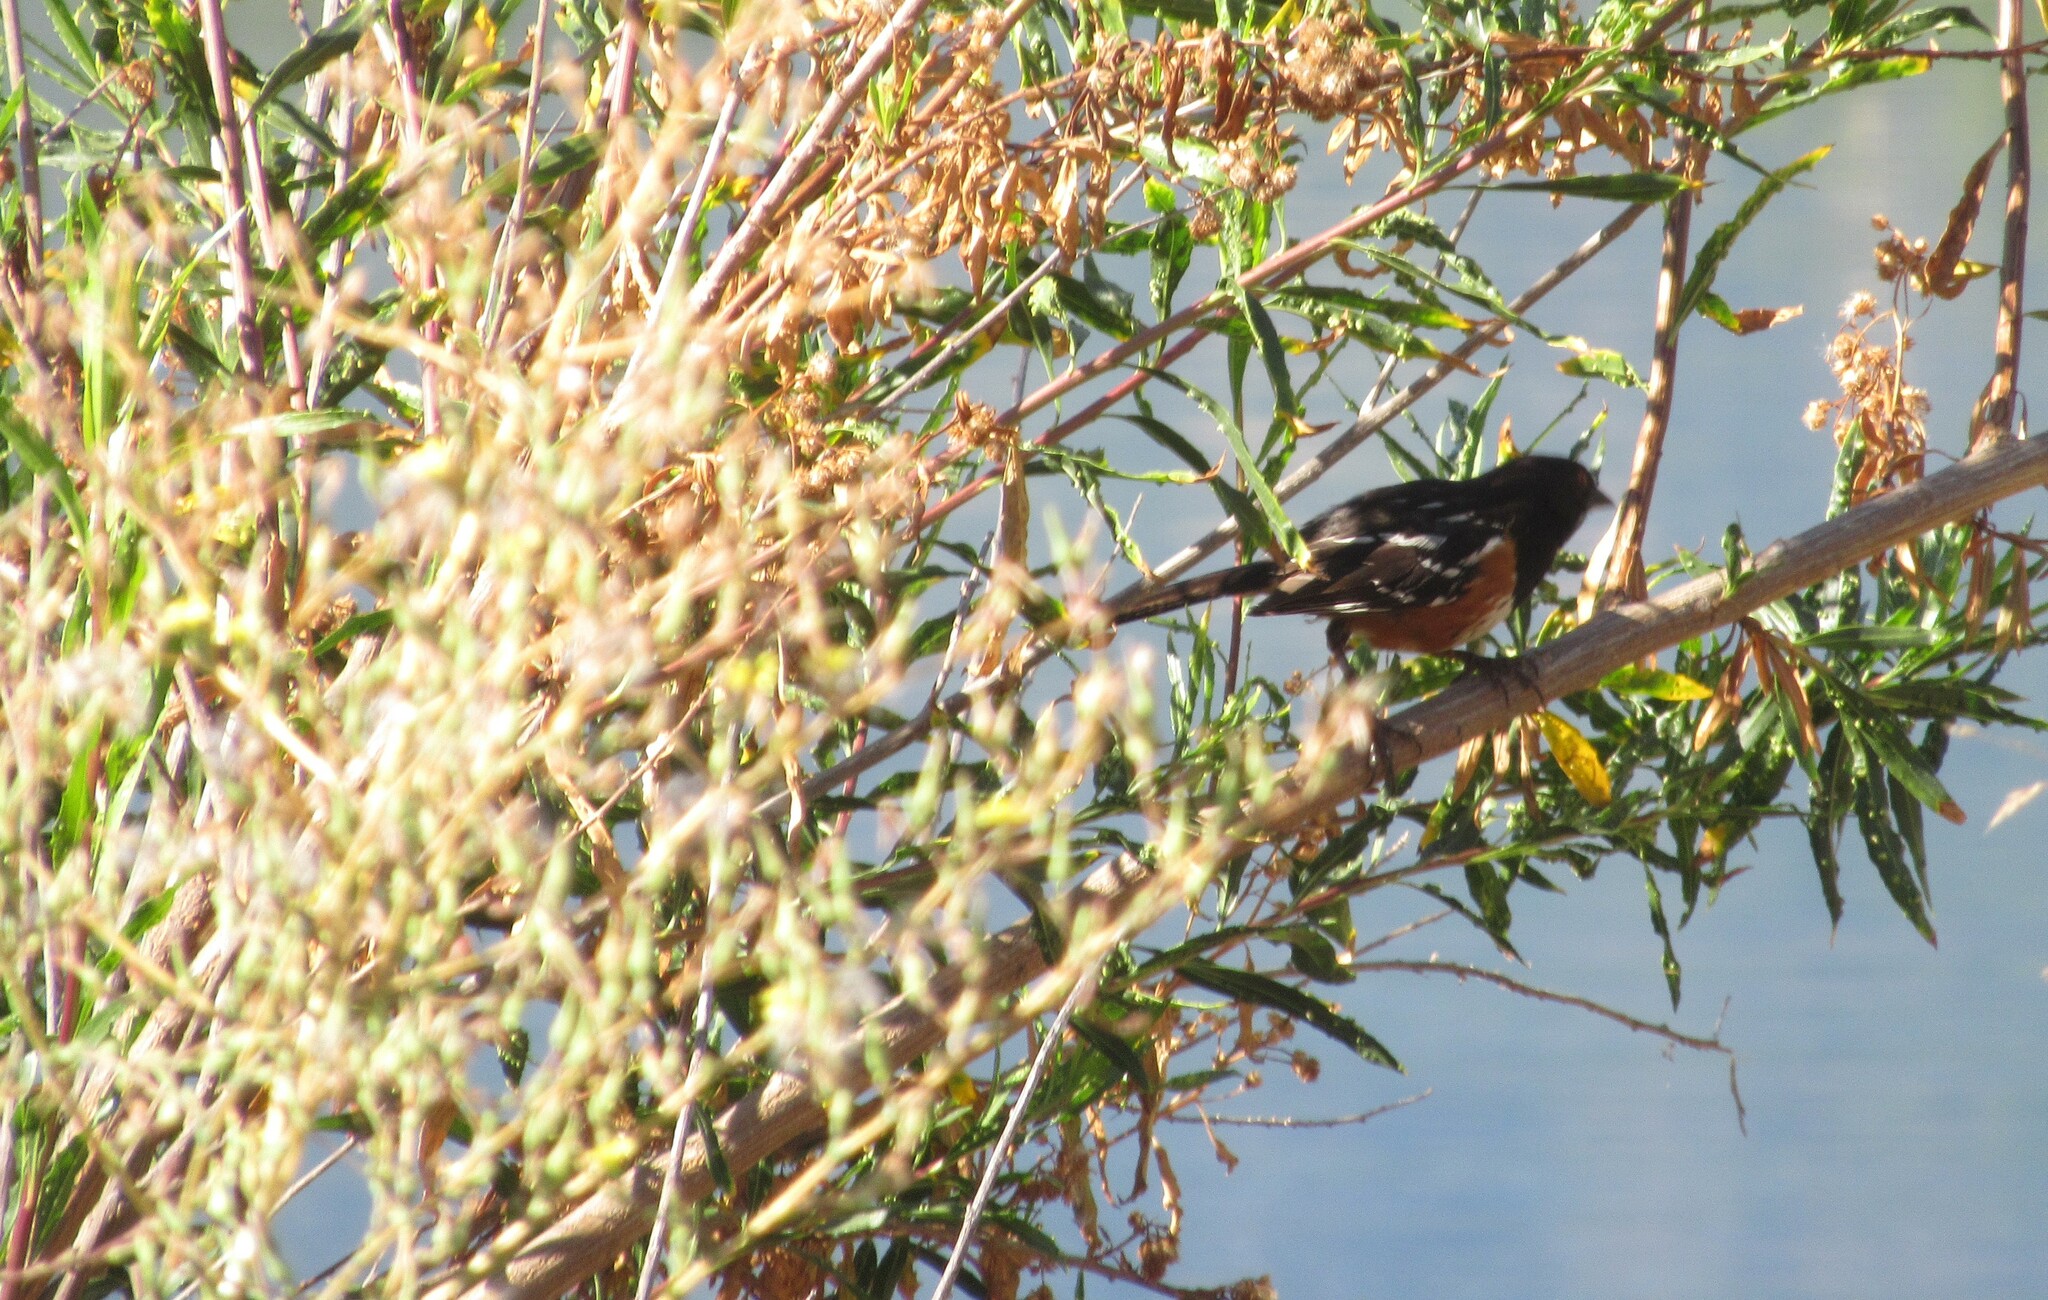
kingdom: Animalia
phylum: Chordata
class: Aves
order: Passeriformes
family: Passerellidae
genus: Pipilo
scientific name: Pipilo maculatus
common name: Spotted towhee
